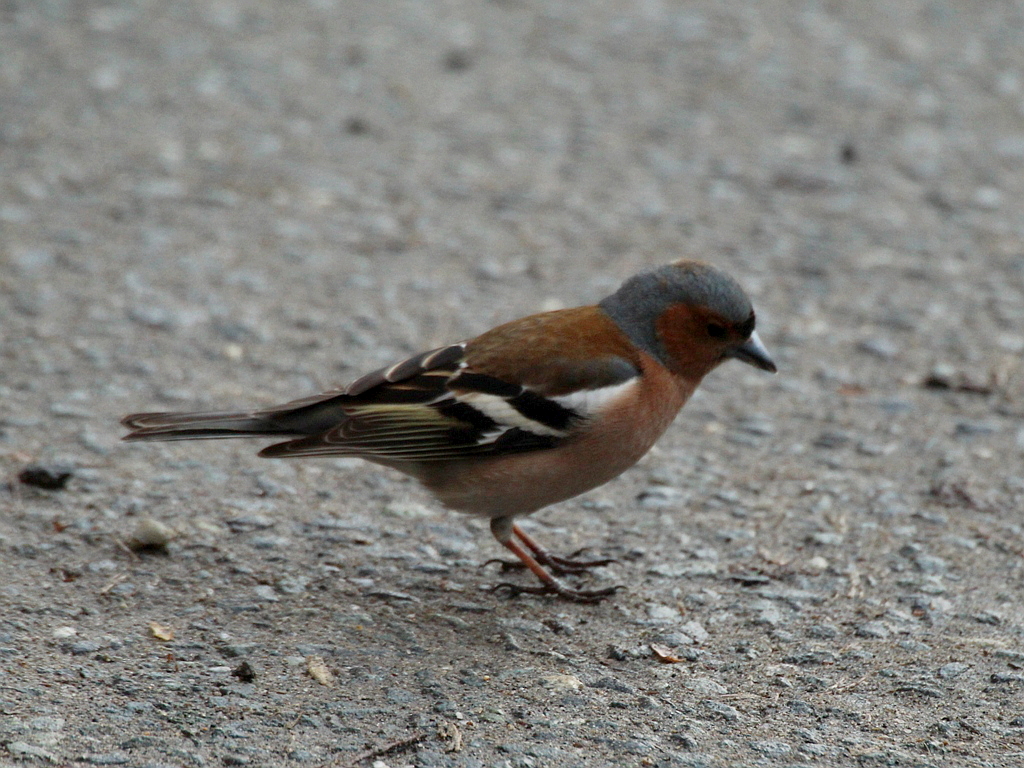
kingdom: Animalia
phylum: Chordata
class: Aves
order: Passeriformes
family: Fringillidae
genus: Fringilla
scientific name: Fringilla coelebs
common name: Common chaffinch
